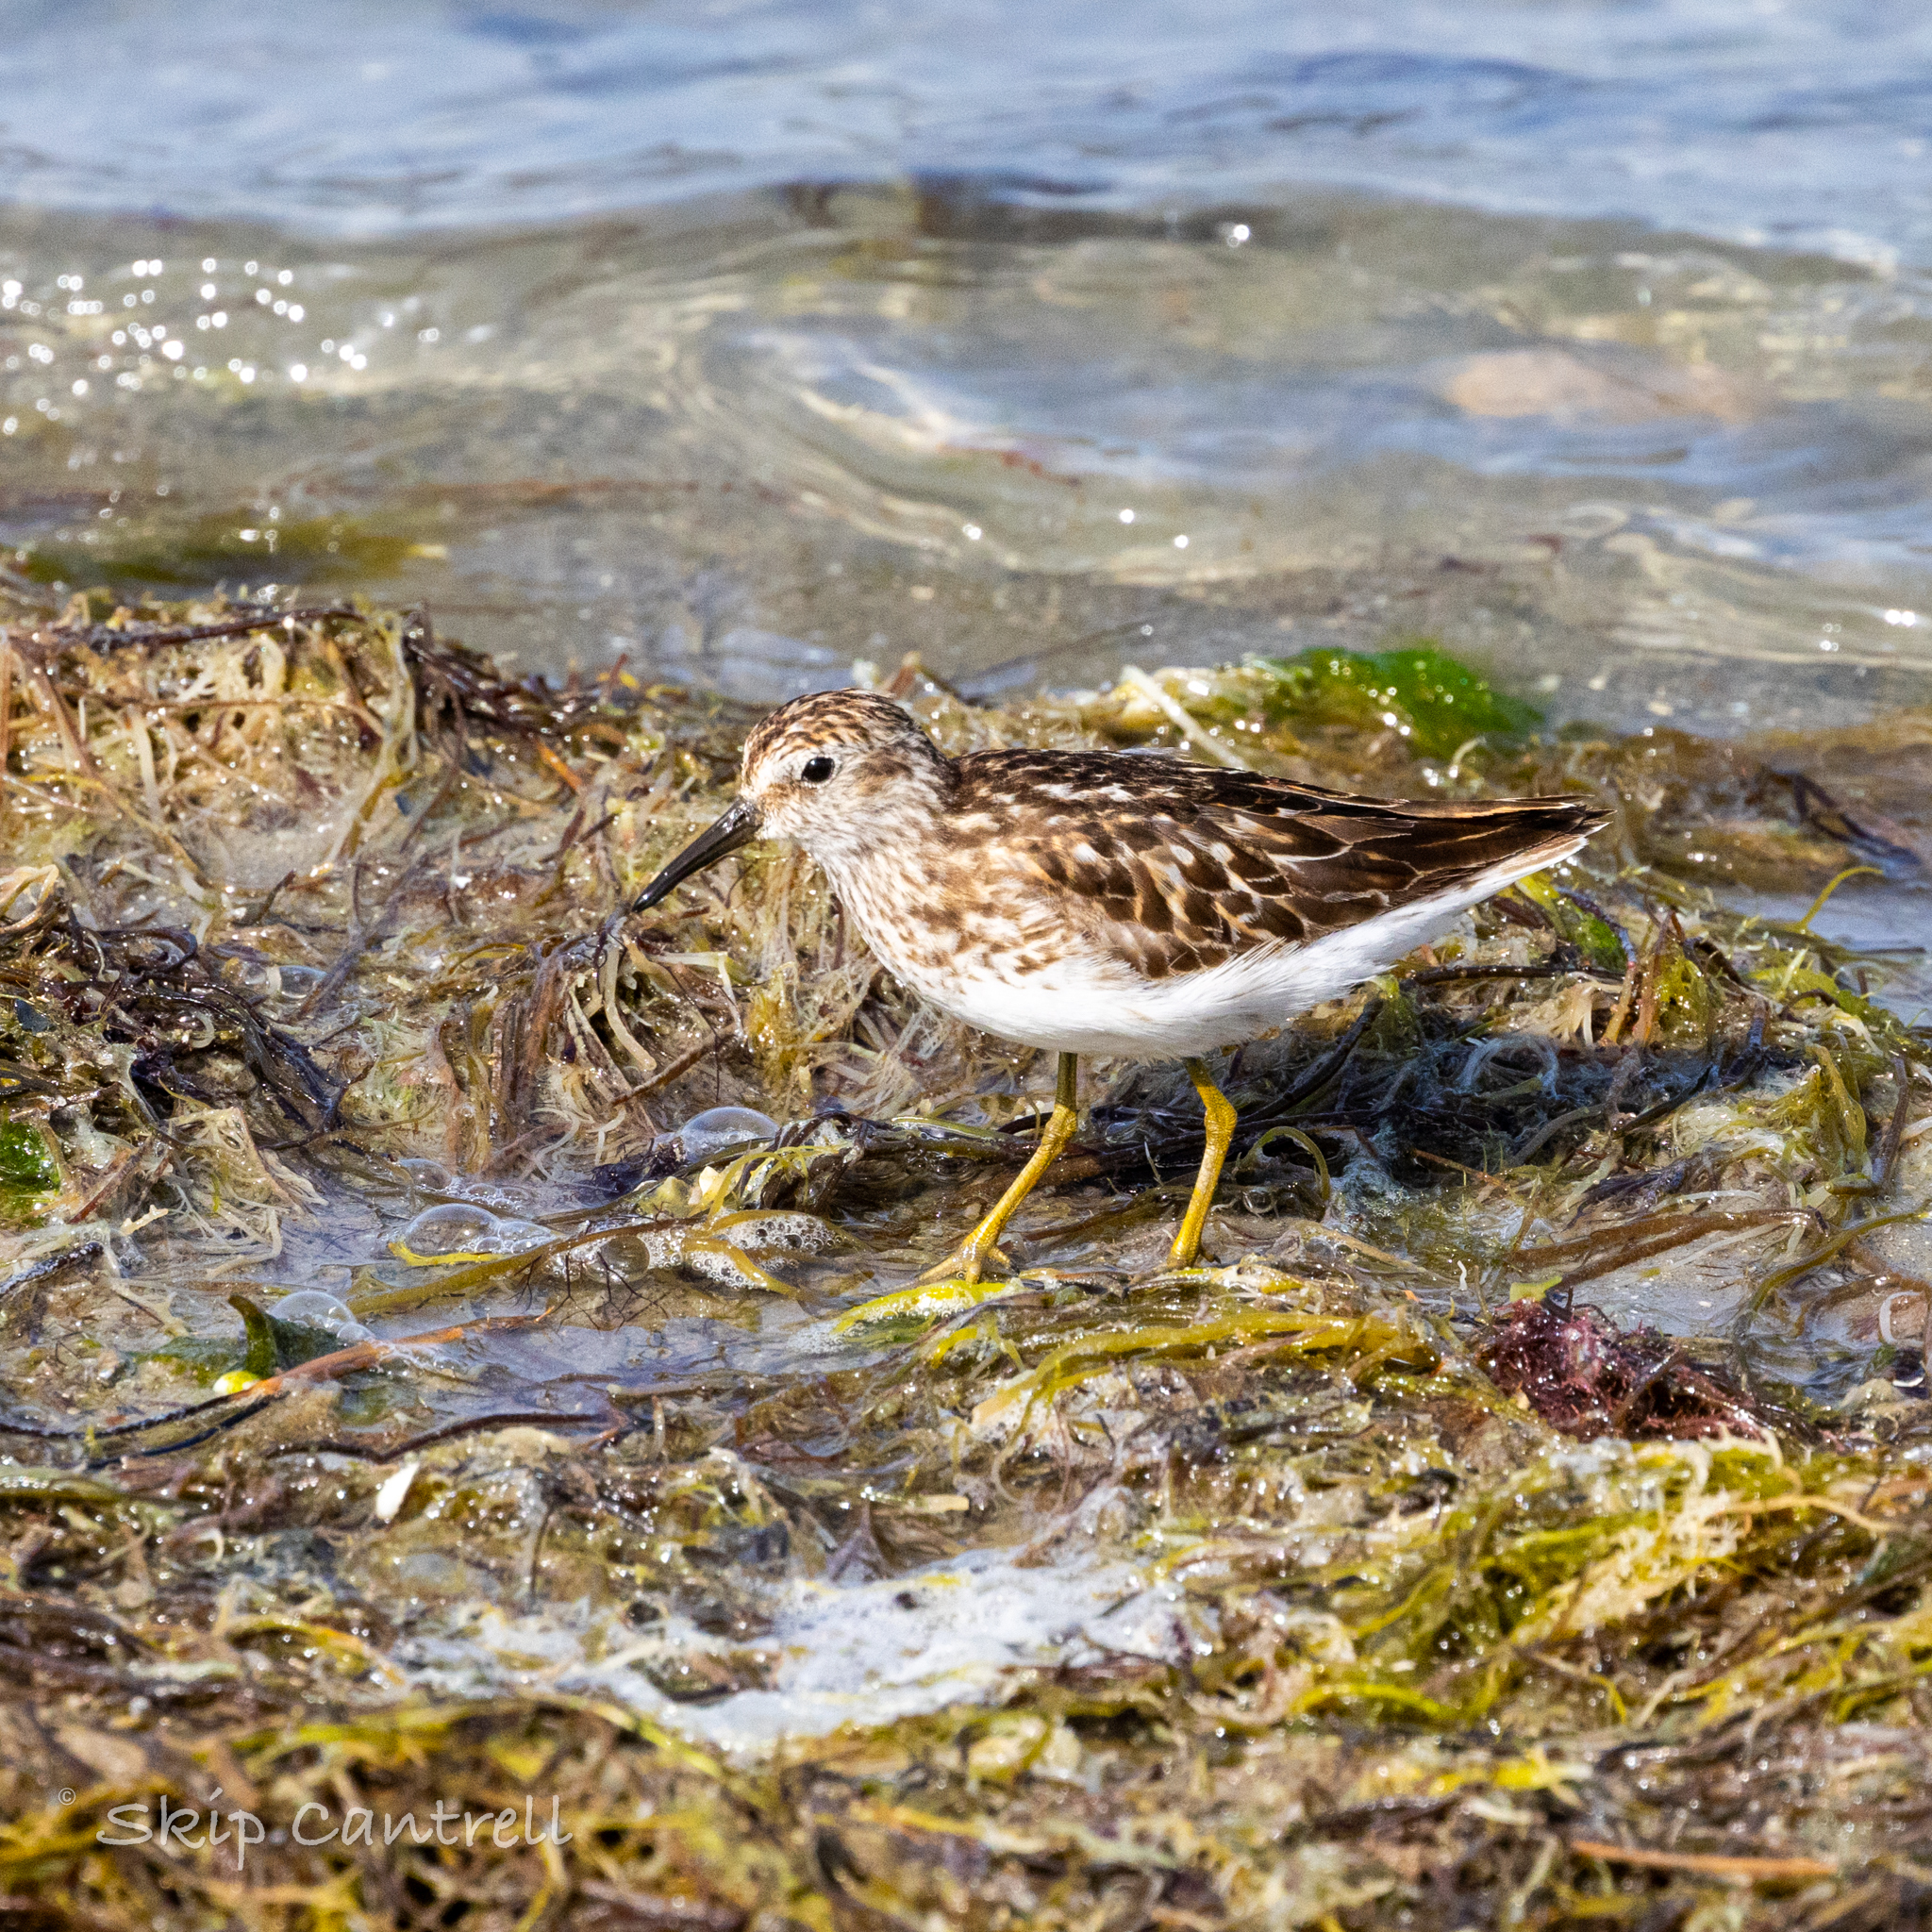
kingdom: Animalia
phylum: Chordata
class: Aves
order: Charadriiformes
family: Scolopacidae
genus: Calidris
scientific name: Calidris minutilla
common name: Least sandpiper
